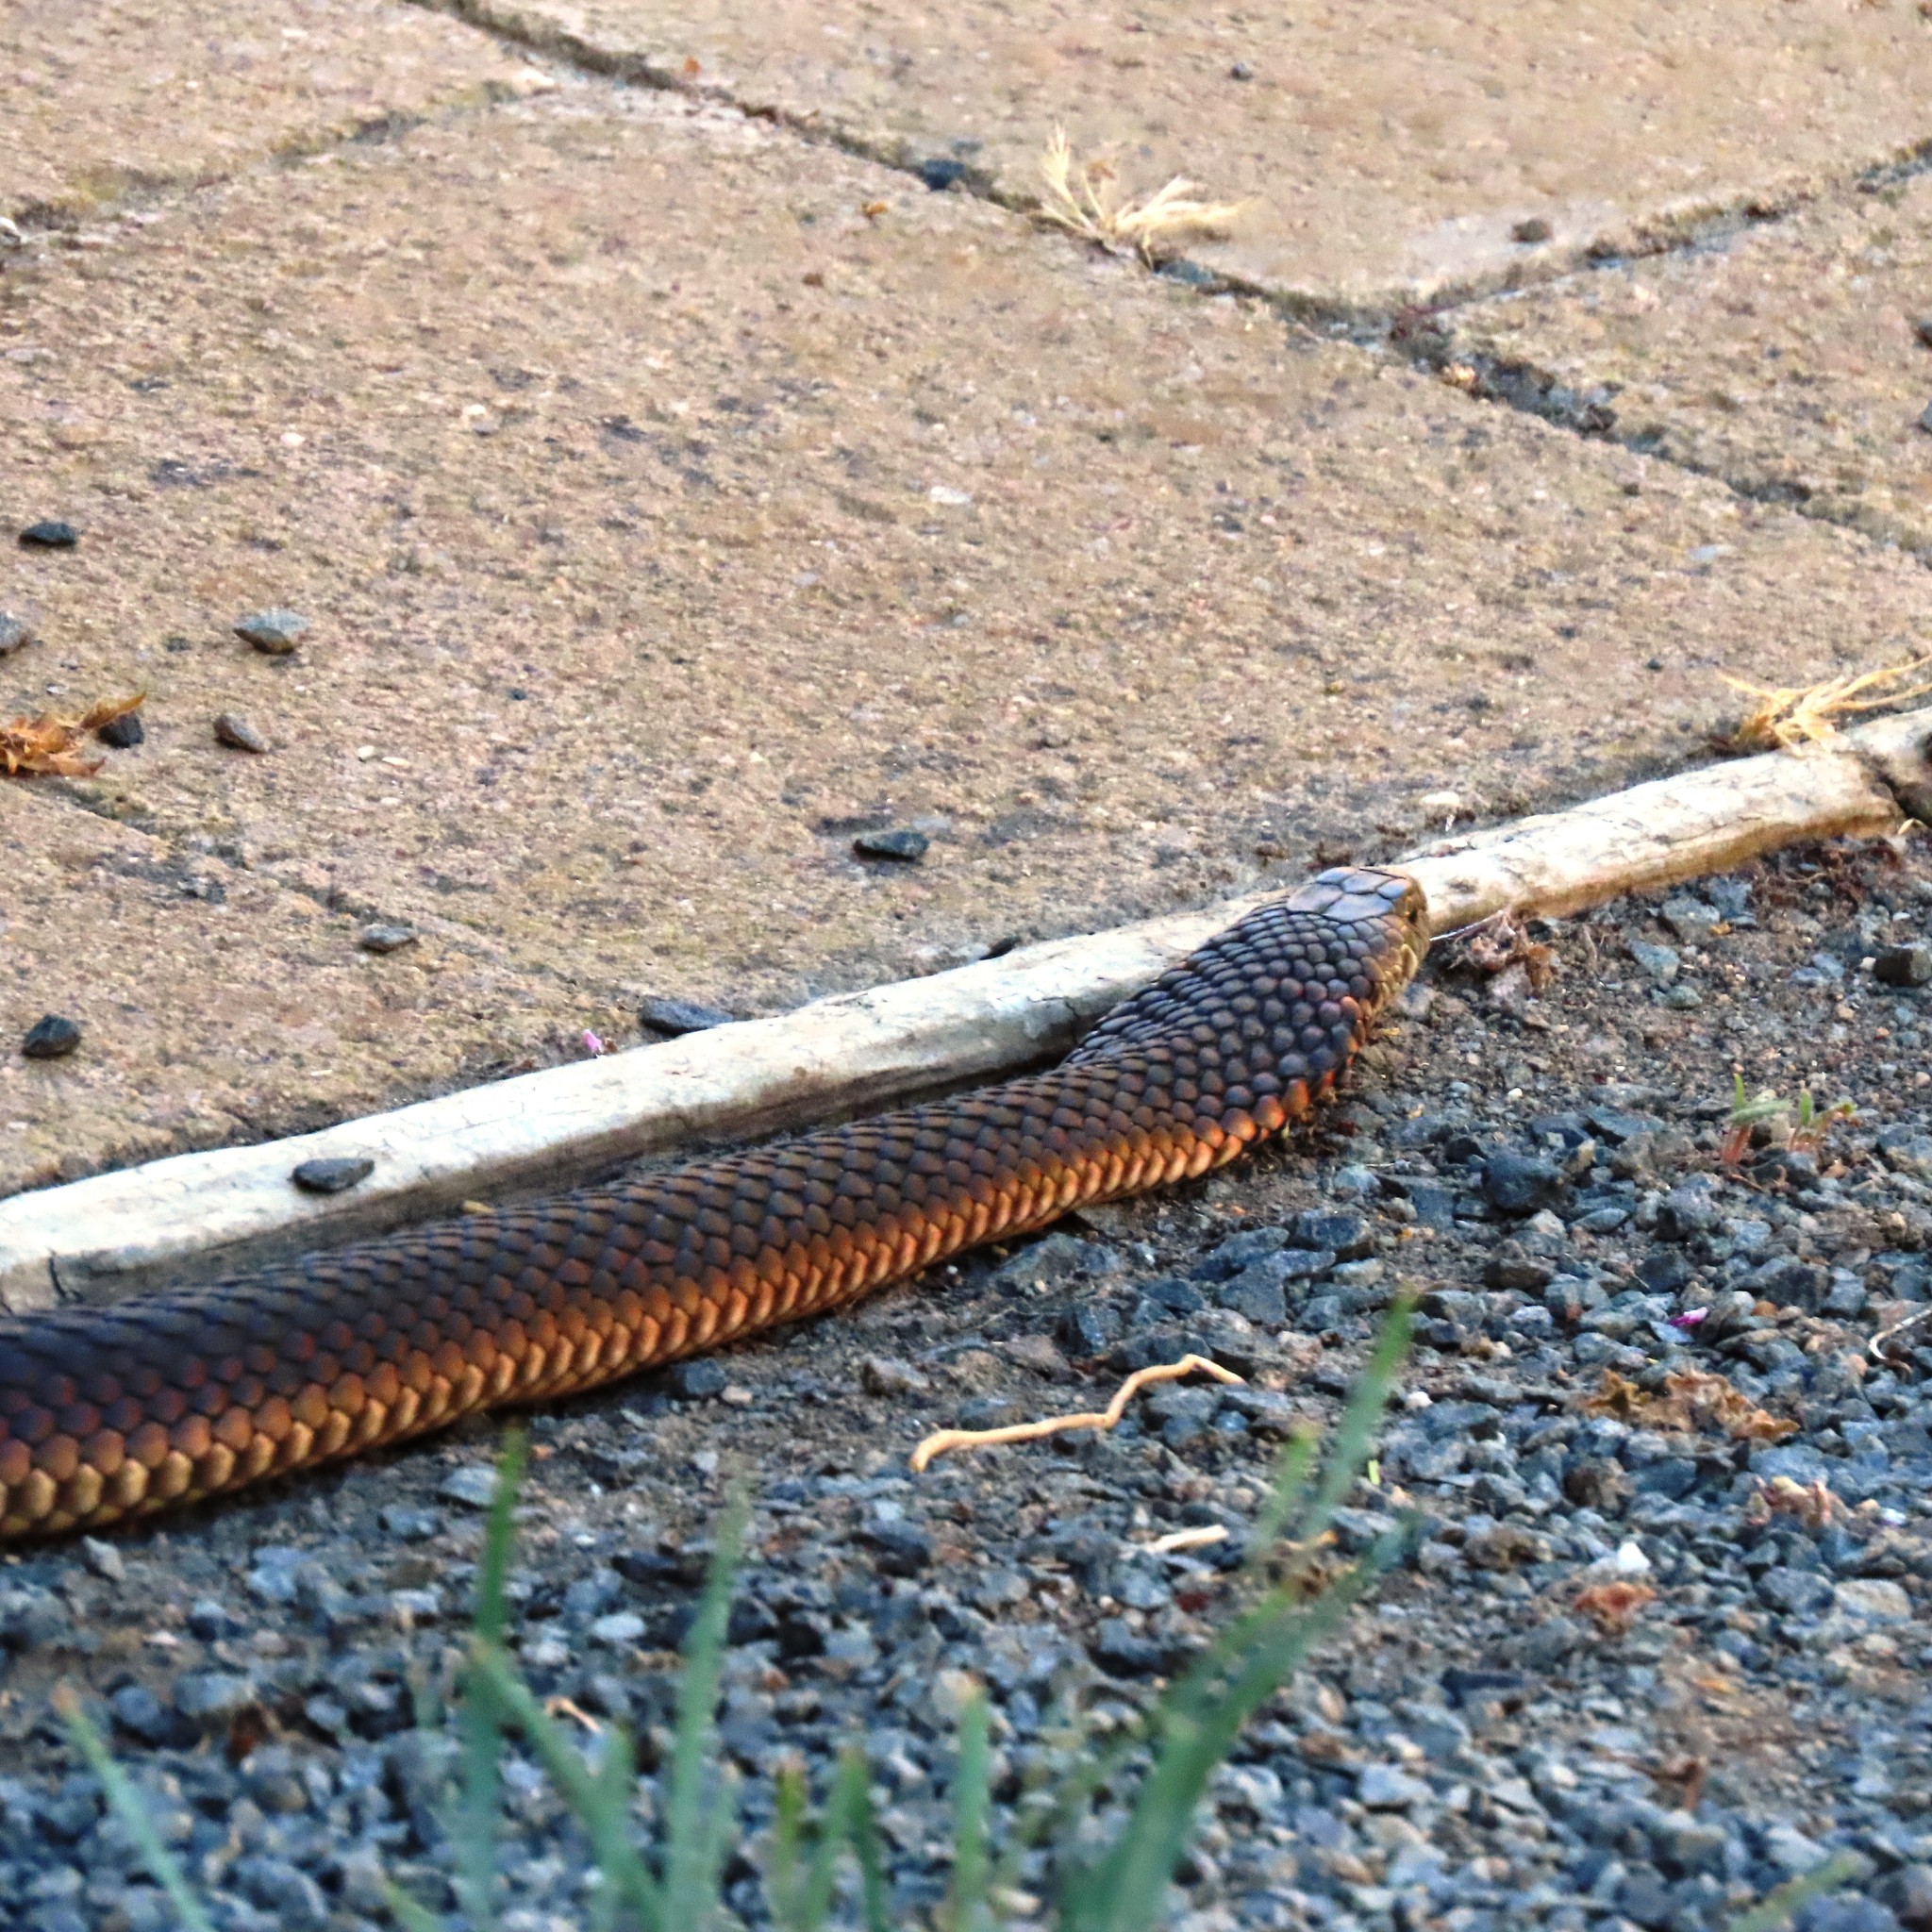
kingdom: Animalia
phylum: Chordata
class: Squamata
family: Elapidae
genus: Austrelaps
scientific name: Austrelaps superbus
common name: Copperhead snake
